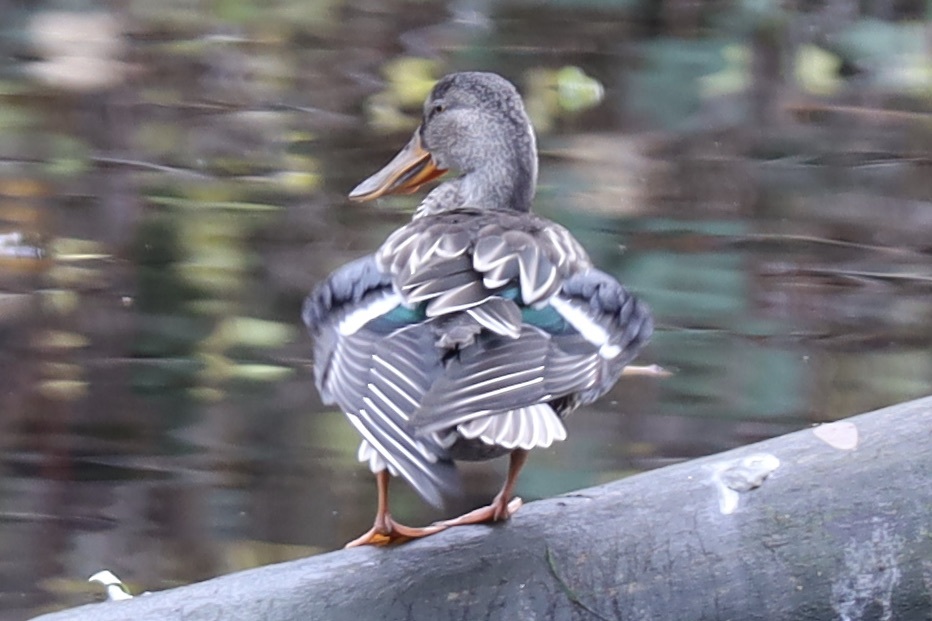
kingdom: Animalia
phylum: Chordata
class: Aves
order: Anseriformes
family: Anatidae
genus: Spatula
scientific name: Spatula clypeata
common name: Northern shoveler
